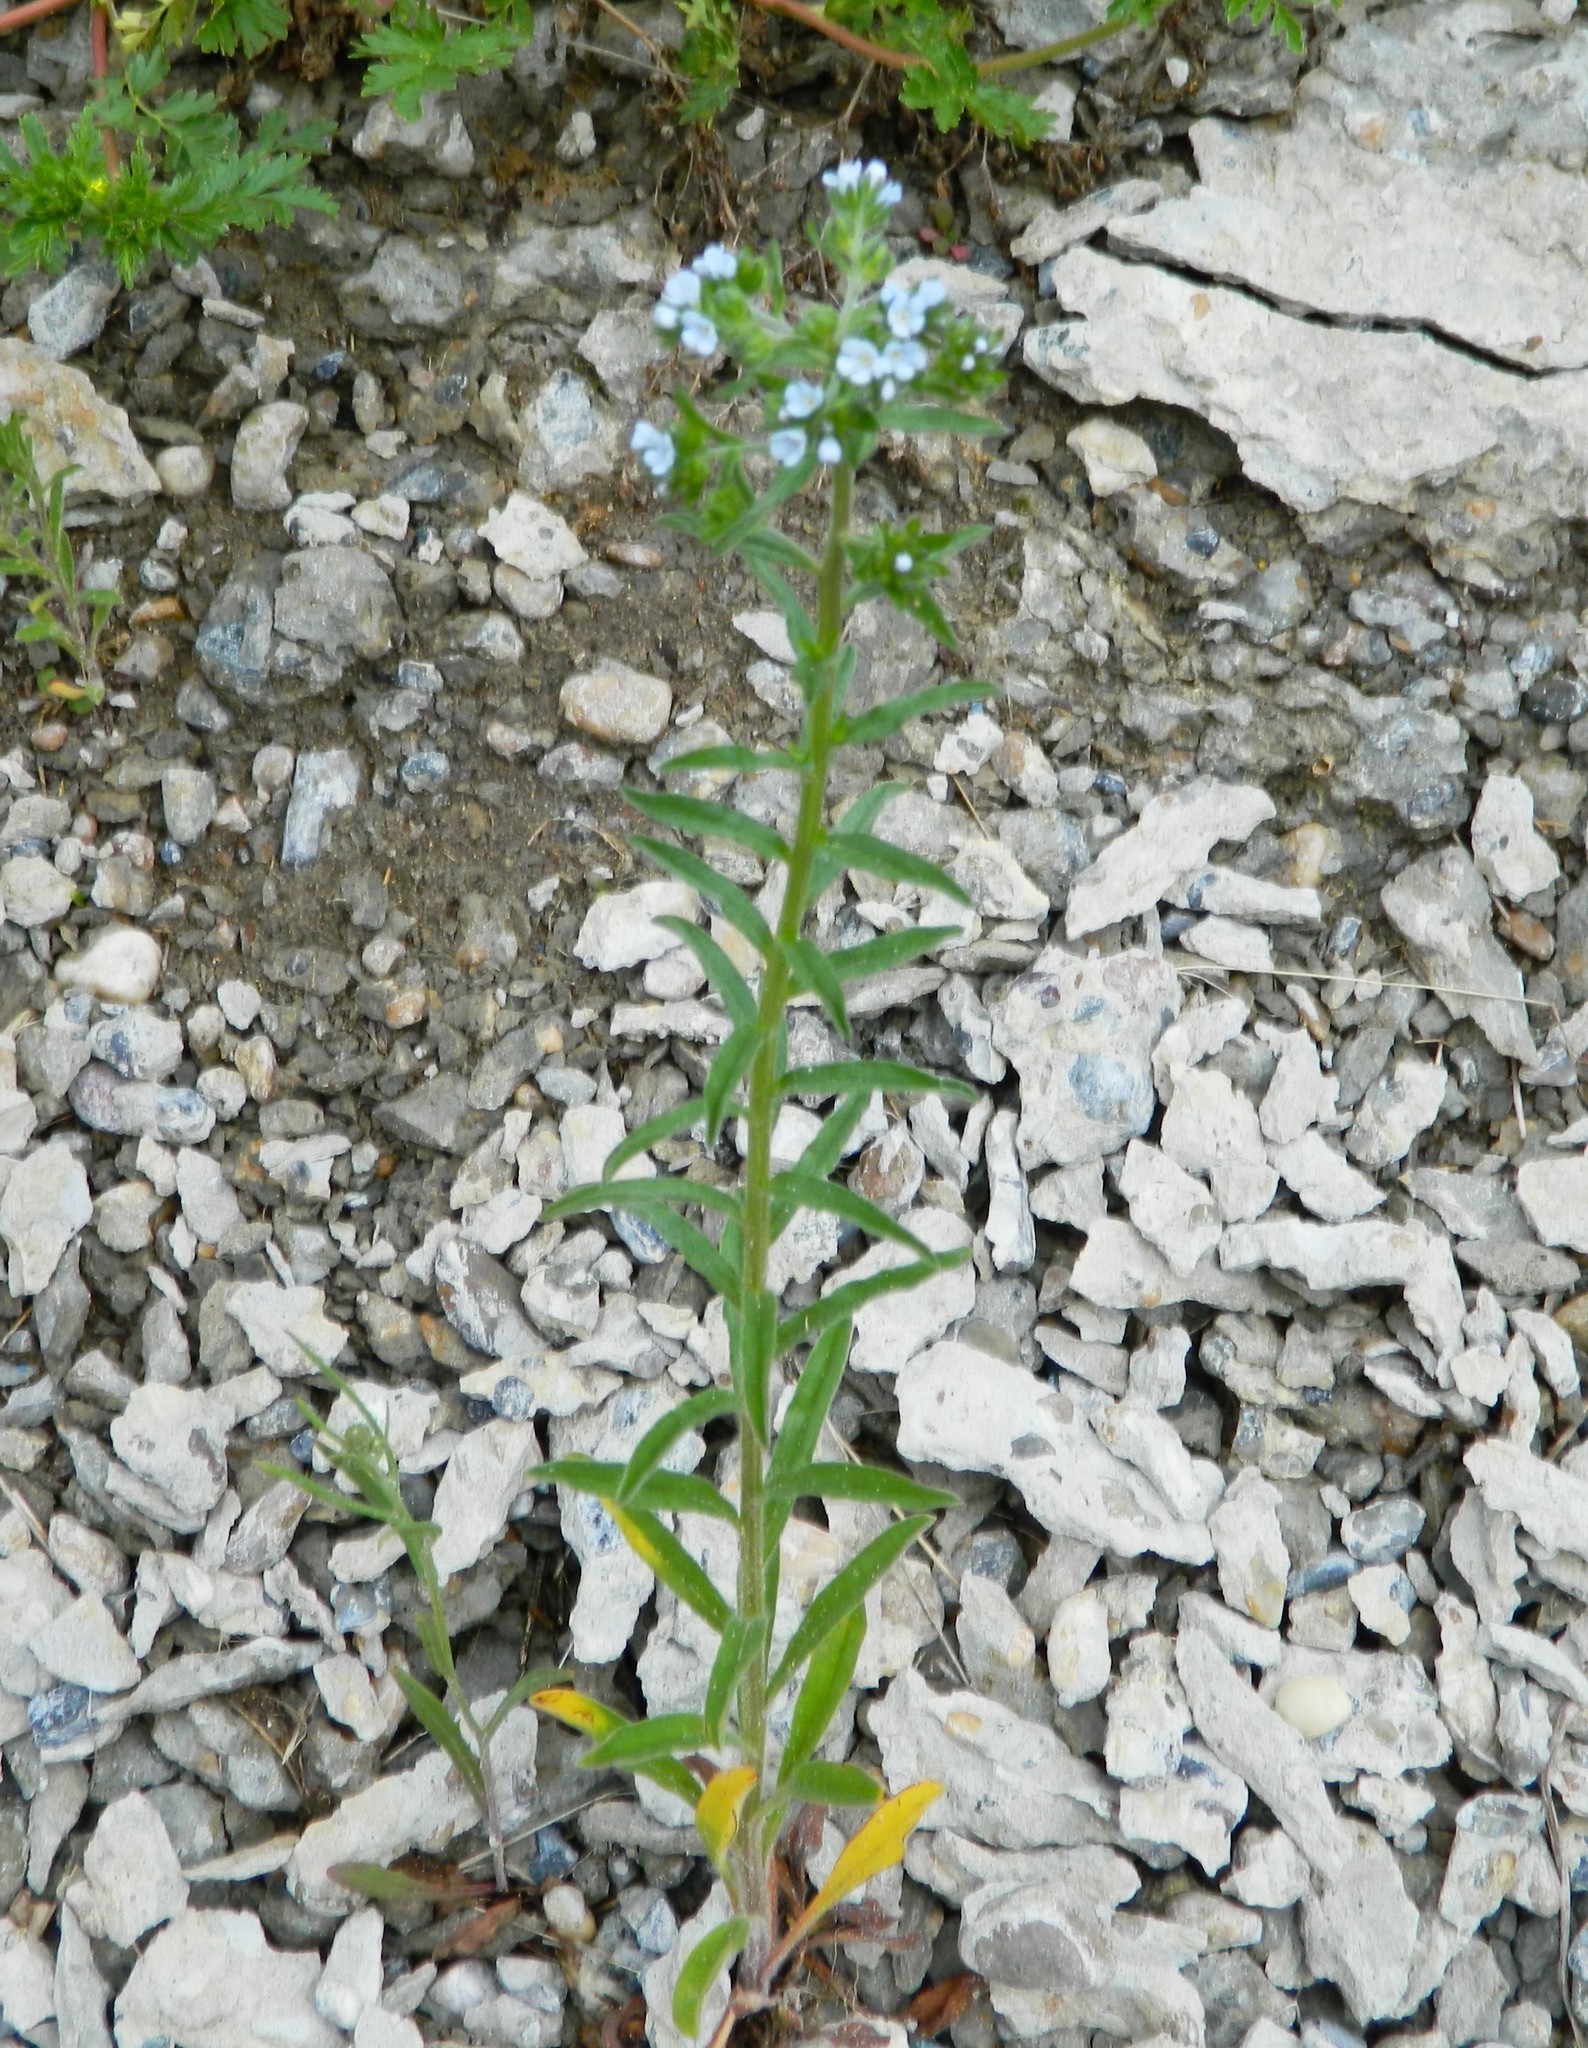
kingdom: Plantae
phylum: Tracheophyta
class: Magnoliopsida
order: Boraginales
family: Boraginaceae
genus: Lappula
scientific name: Lappula squarrosa
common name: European stickseed
